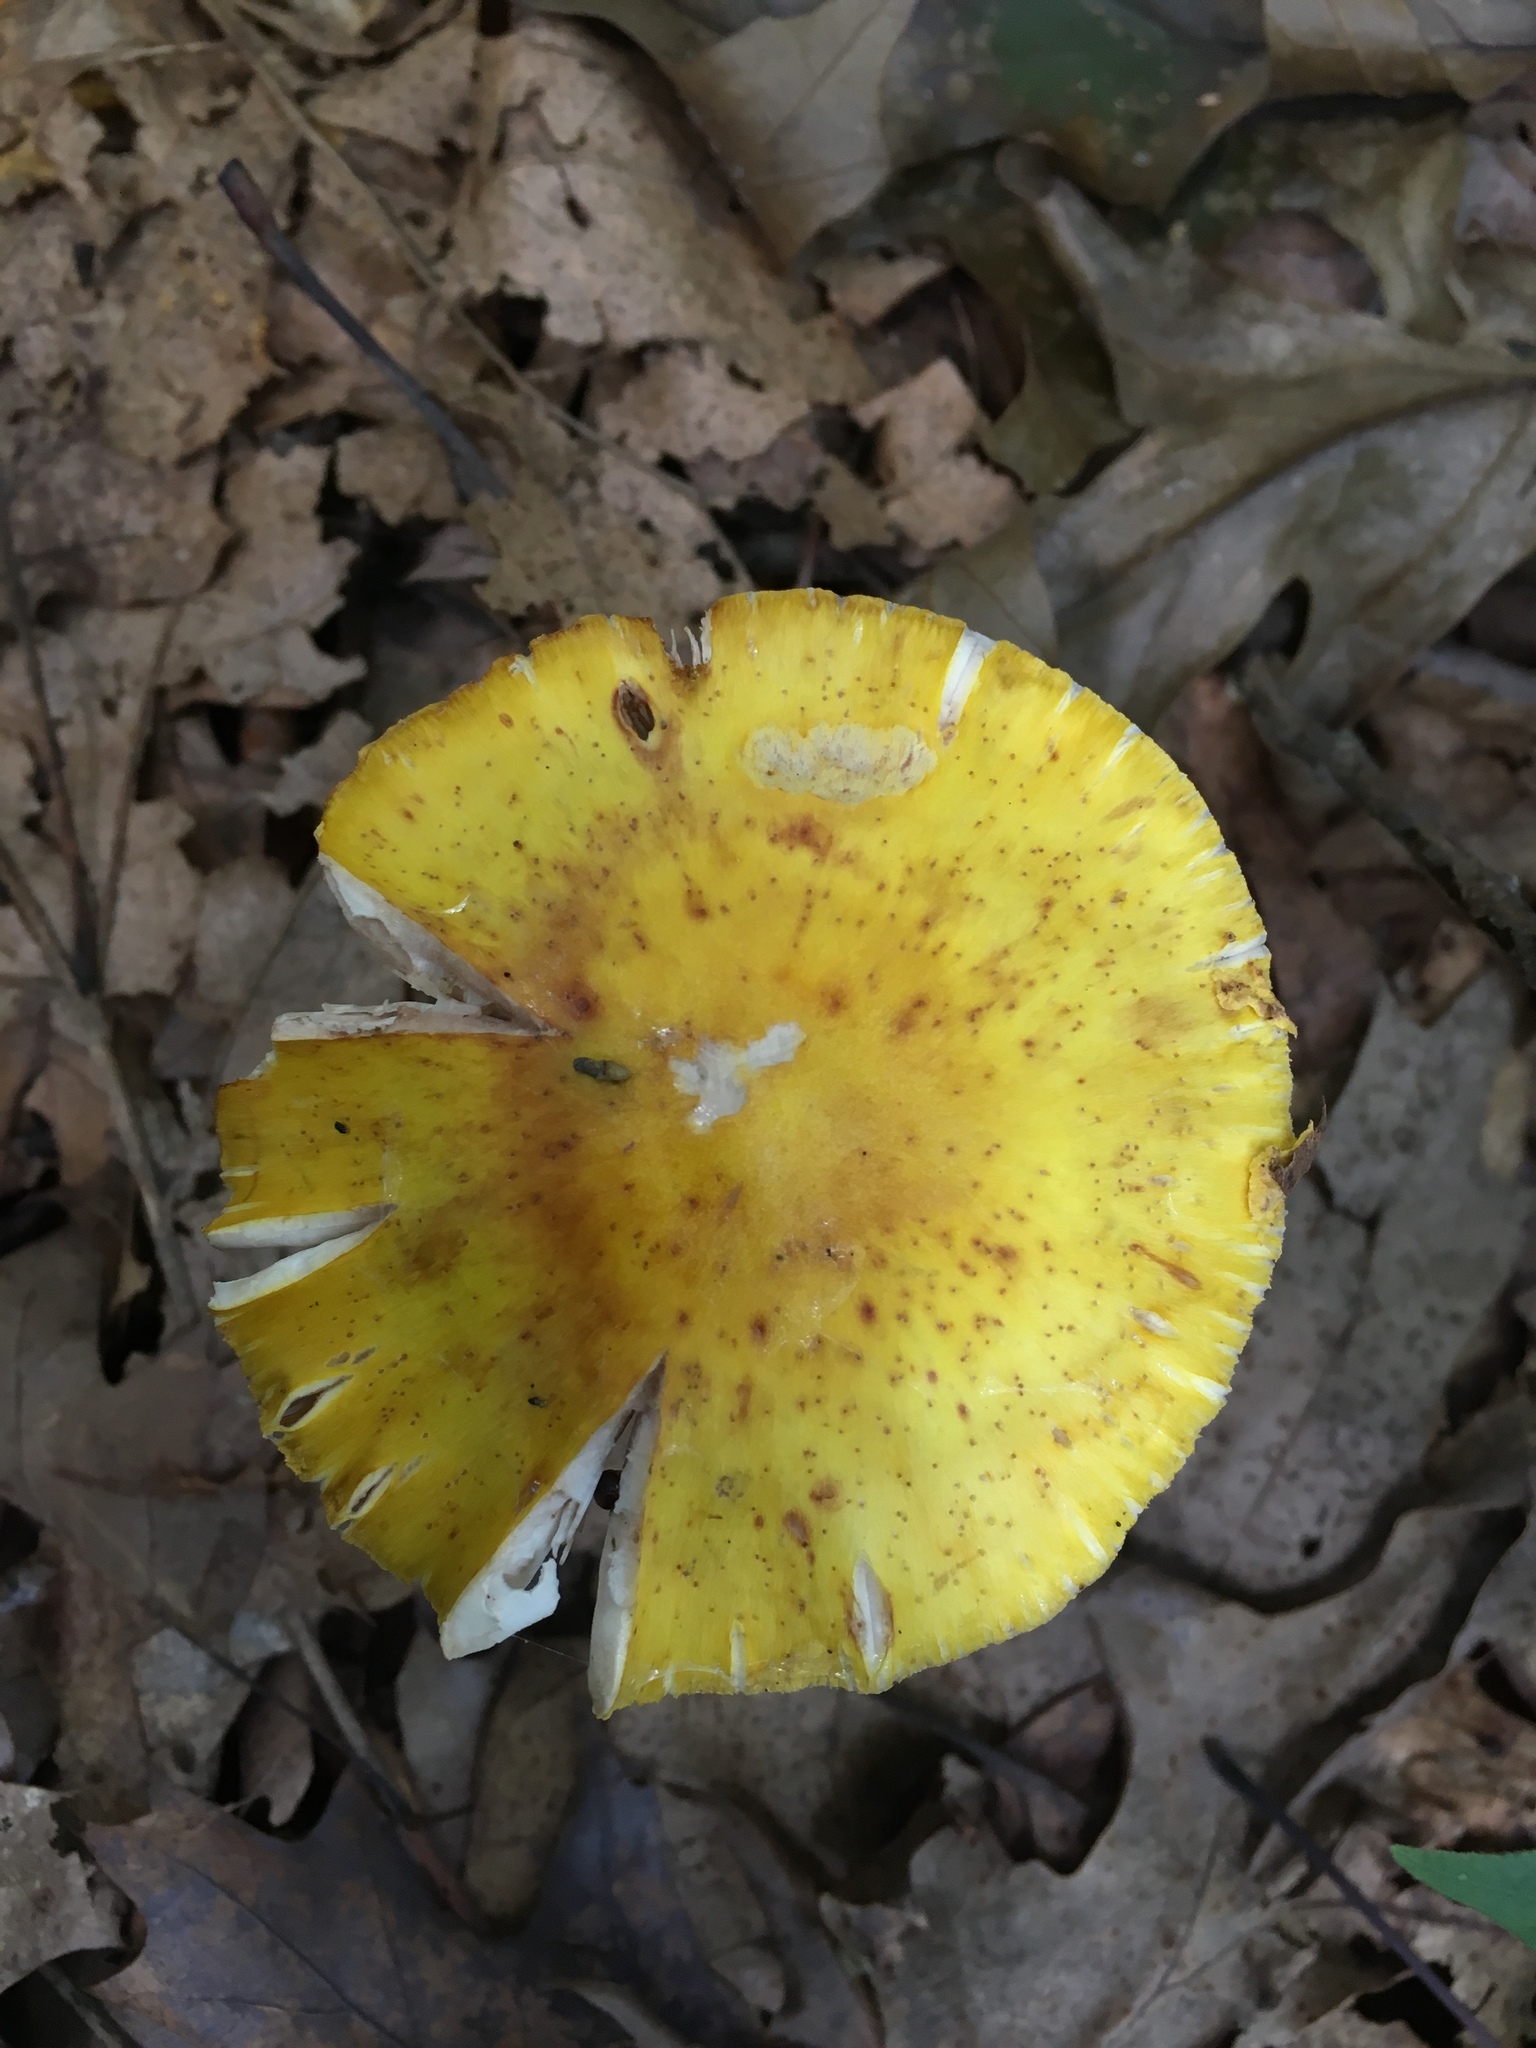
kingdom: Fungi
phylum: Basidiomycota
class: Agaricomycetes
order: Agaricales
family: Amanitaceae
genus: Amanita
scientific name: Amanita flavorubens
